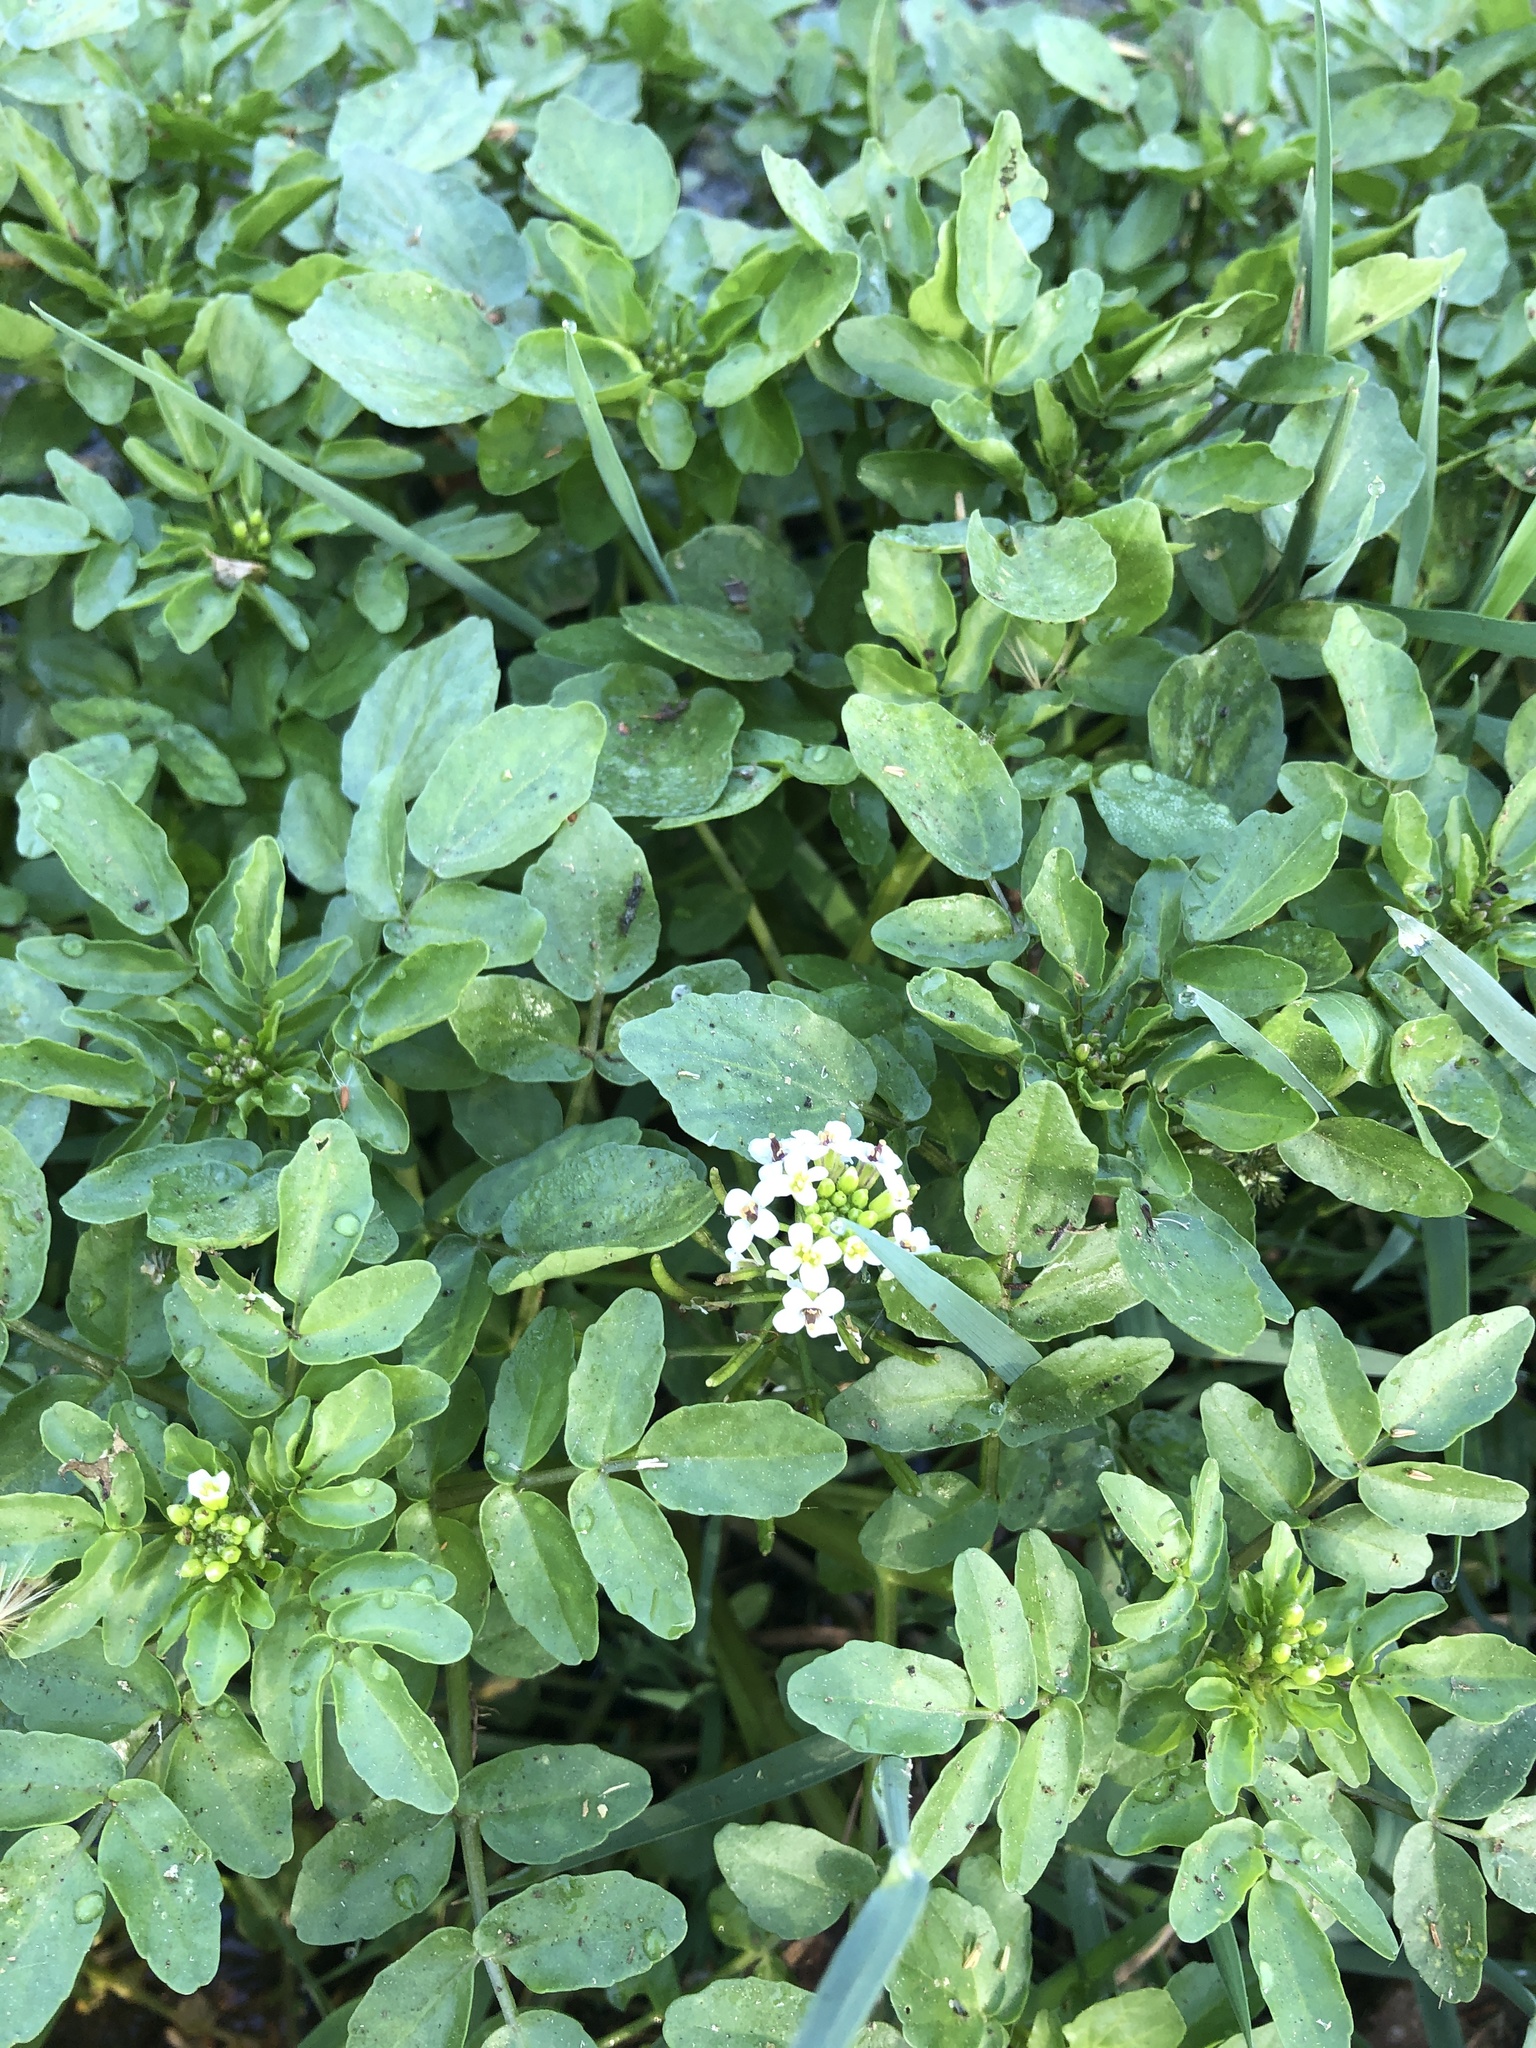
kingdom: Plantae
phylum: Tracheophyta
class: Magnoliopsida
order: Brassicales
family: Brassicaceae
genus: Nasturtium
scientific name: Nasturtium officinale
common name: Watercress
